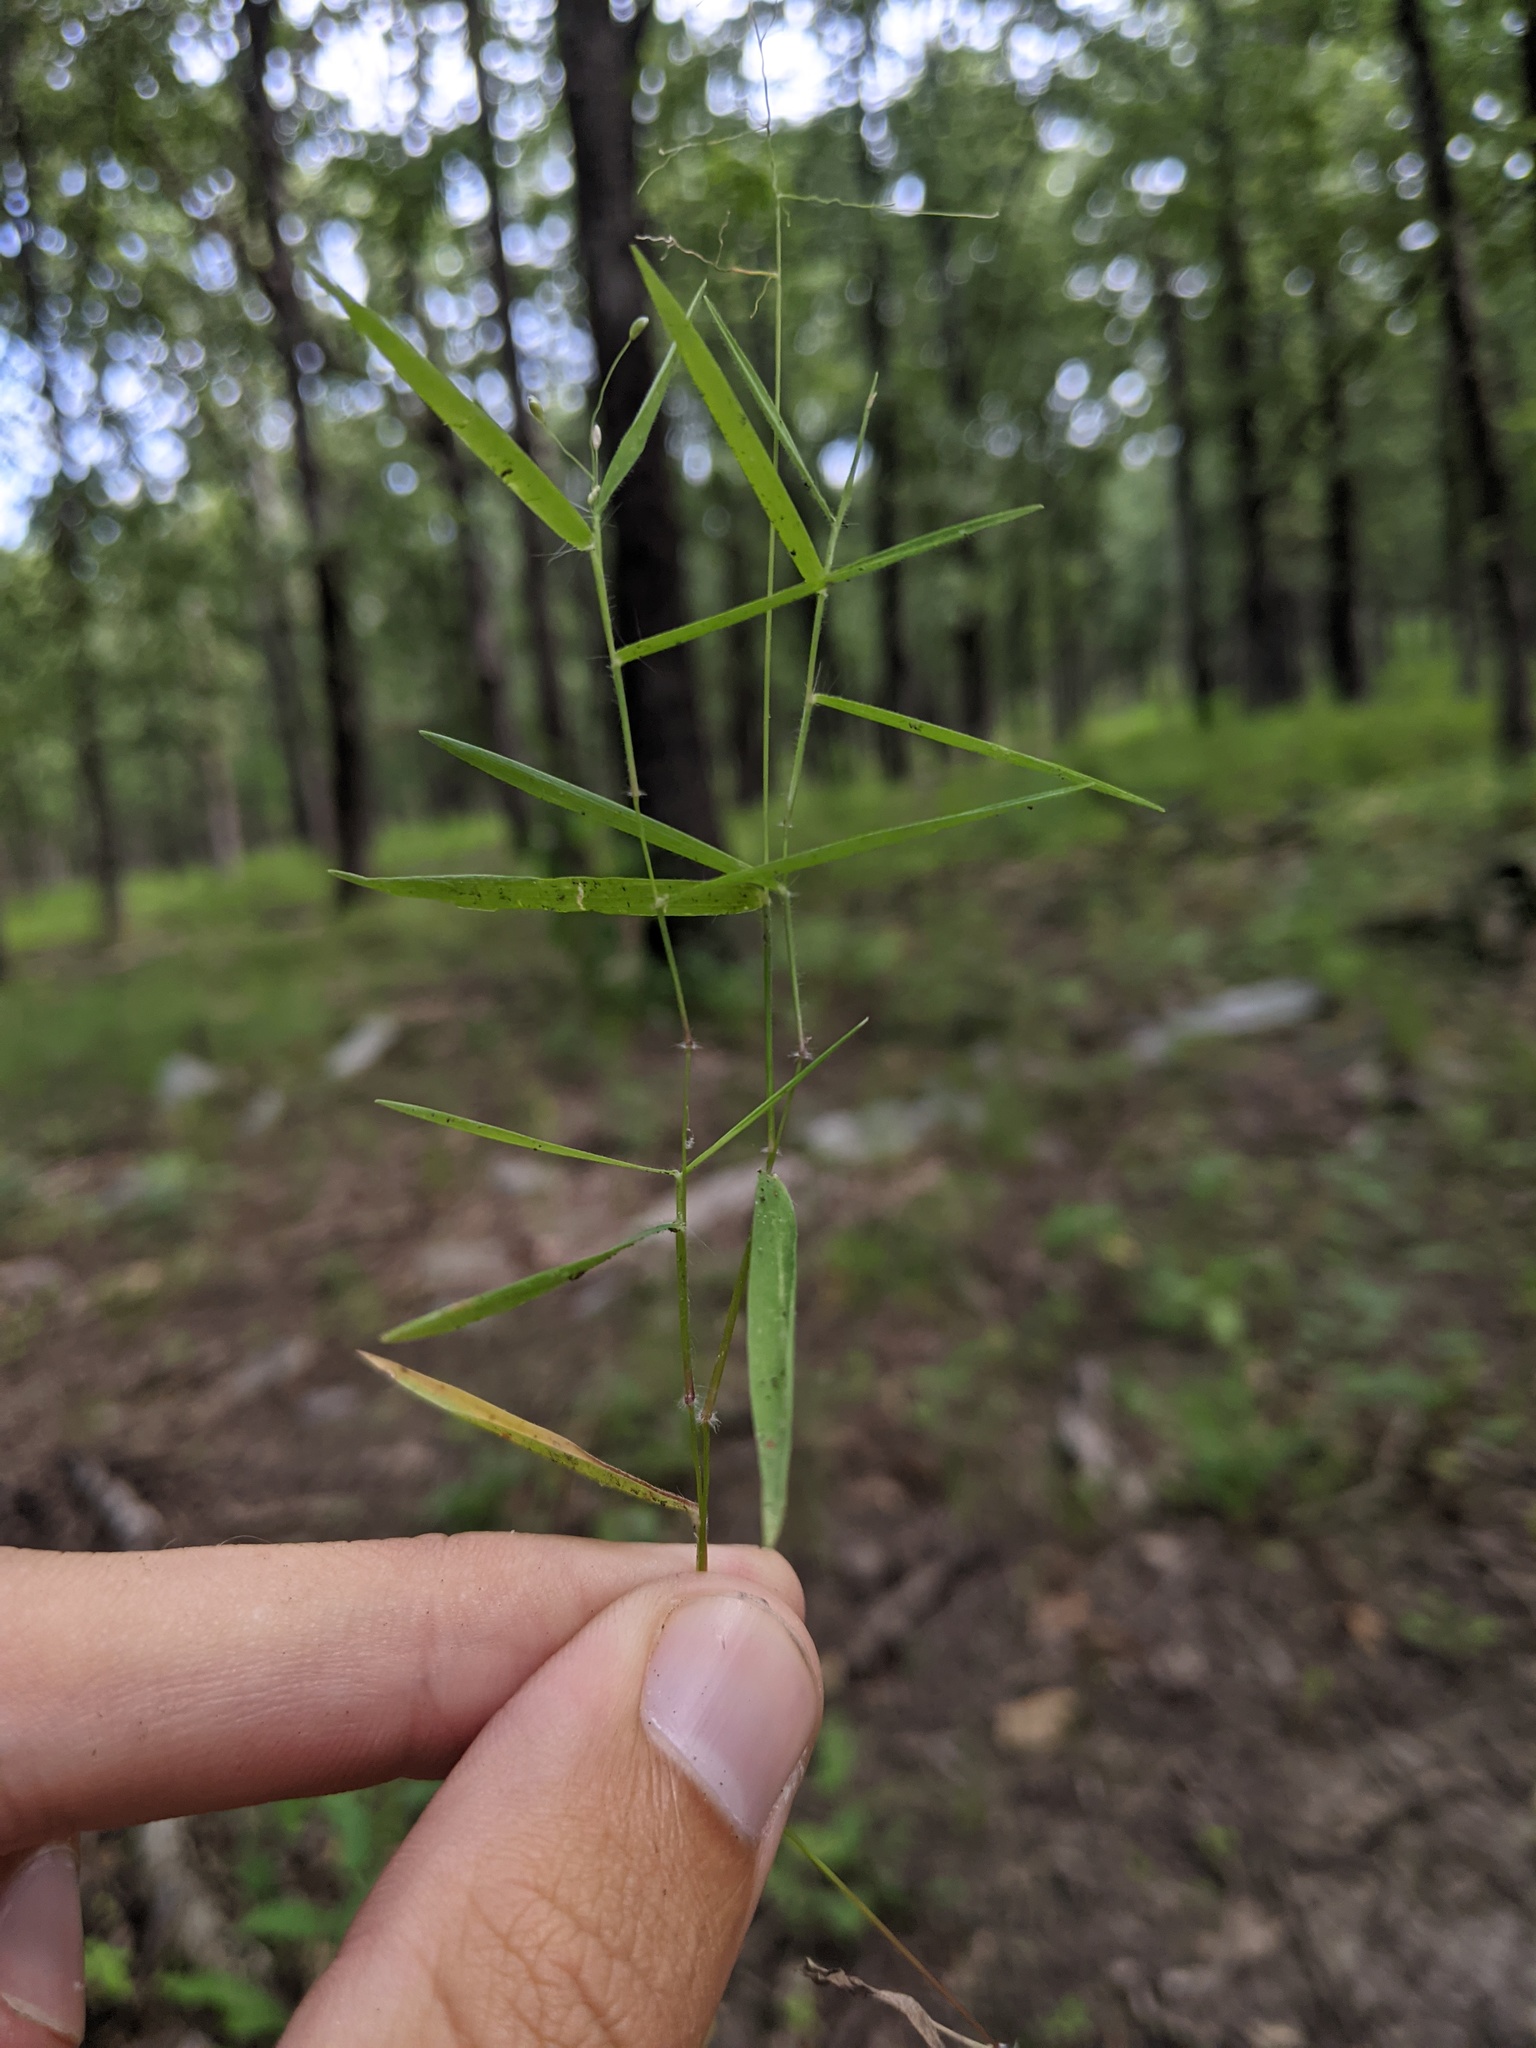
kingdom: Plantae
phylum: Tracheophyta
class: Liliopsida
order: Poales
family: Poaceae
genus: Dichanthelium
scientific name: Dichanthelium dichotomum
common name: Cypress panicgrass
